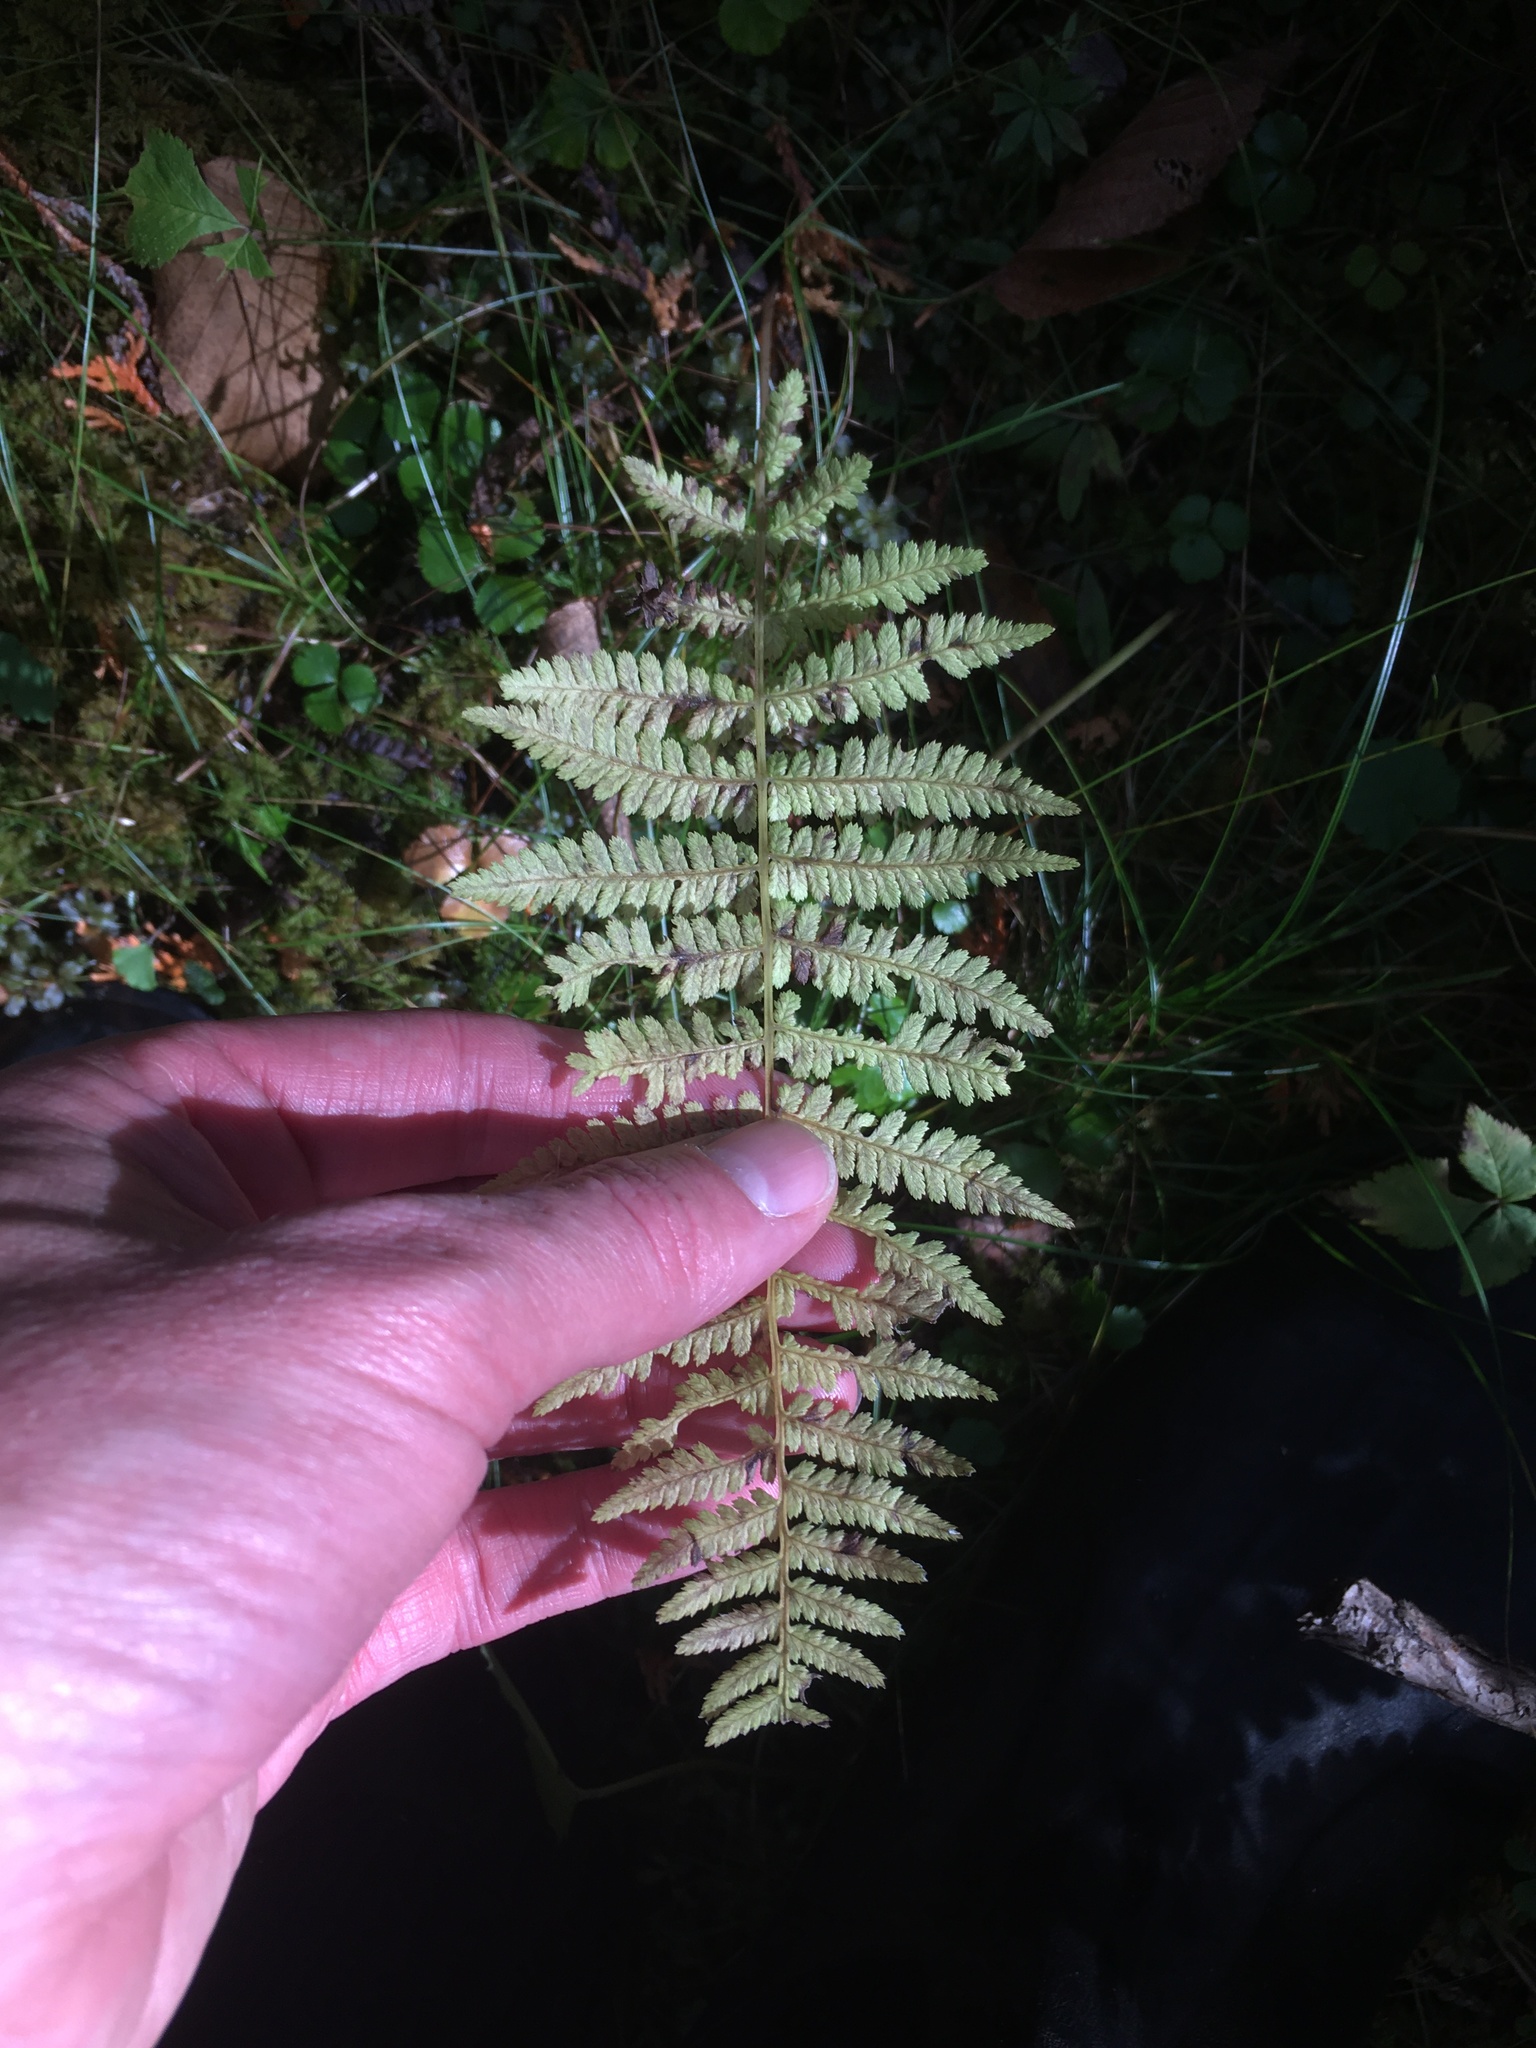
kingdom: Plantae
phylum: Tracheophyta
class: Polypodiopsida
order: Polypodiales
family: Thelypteridaceae
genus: Amauropelta
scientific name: Amauropelta noveboracensis
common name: New york fern
